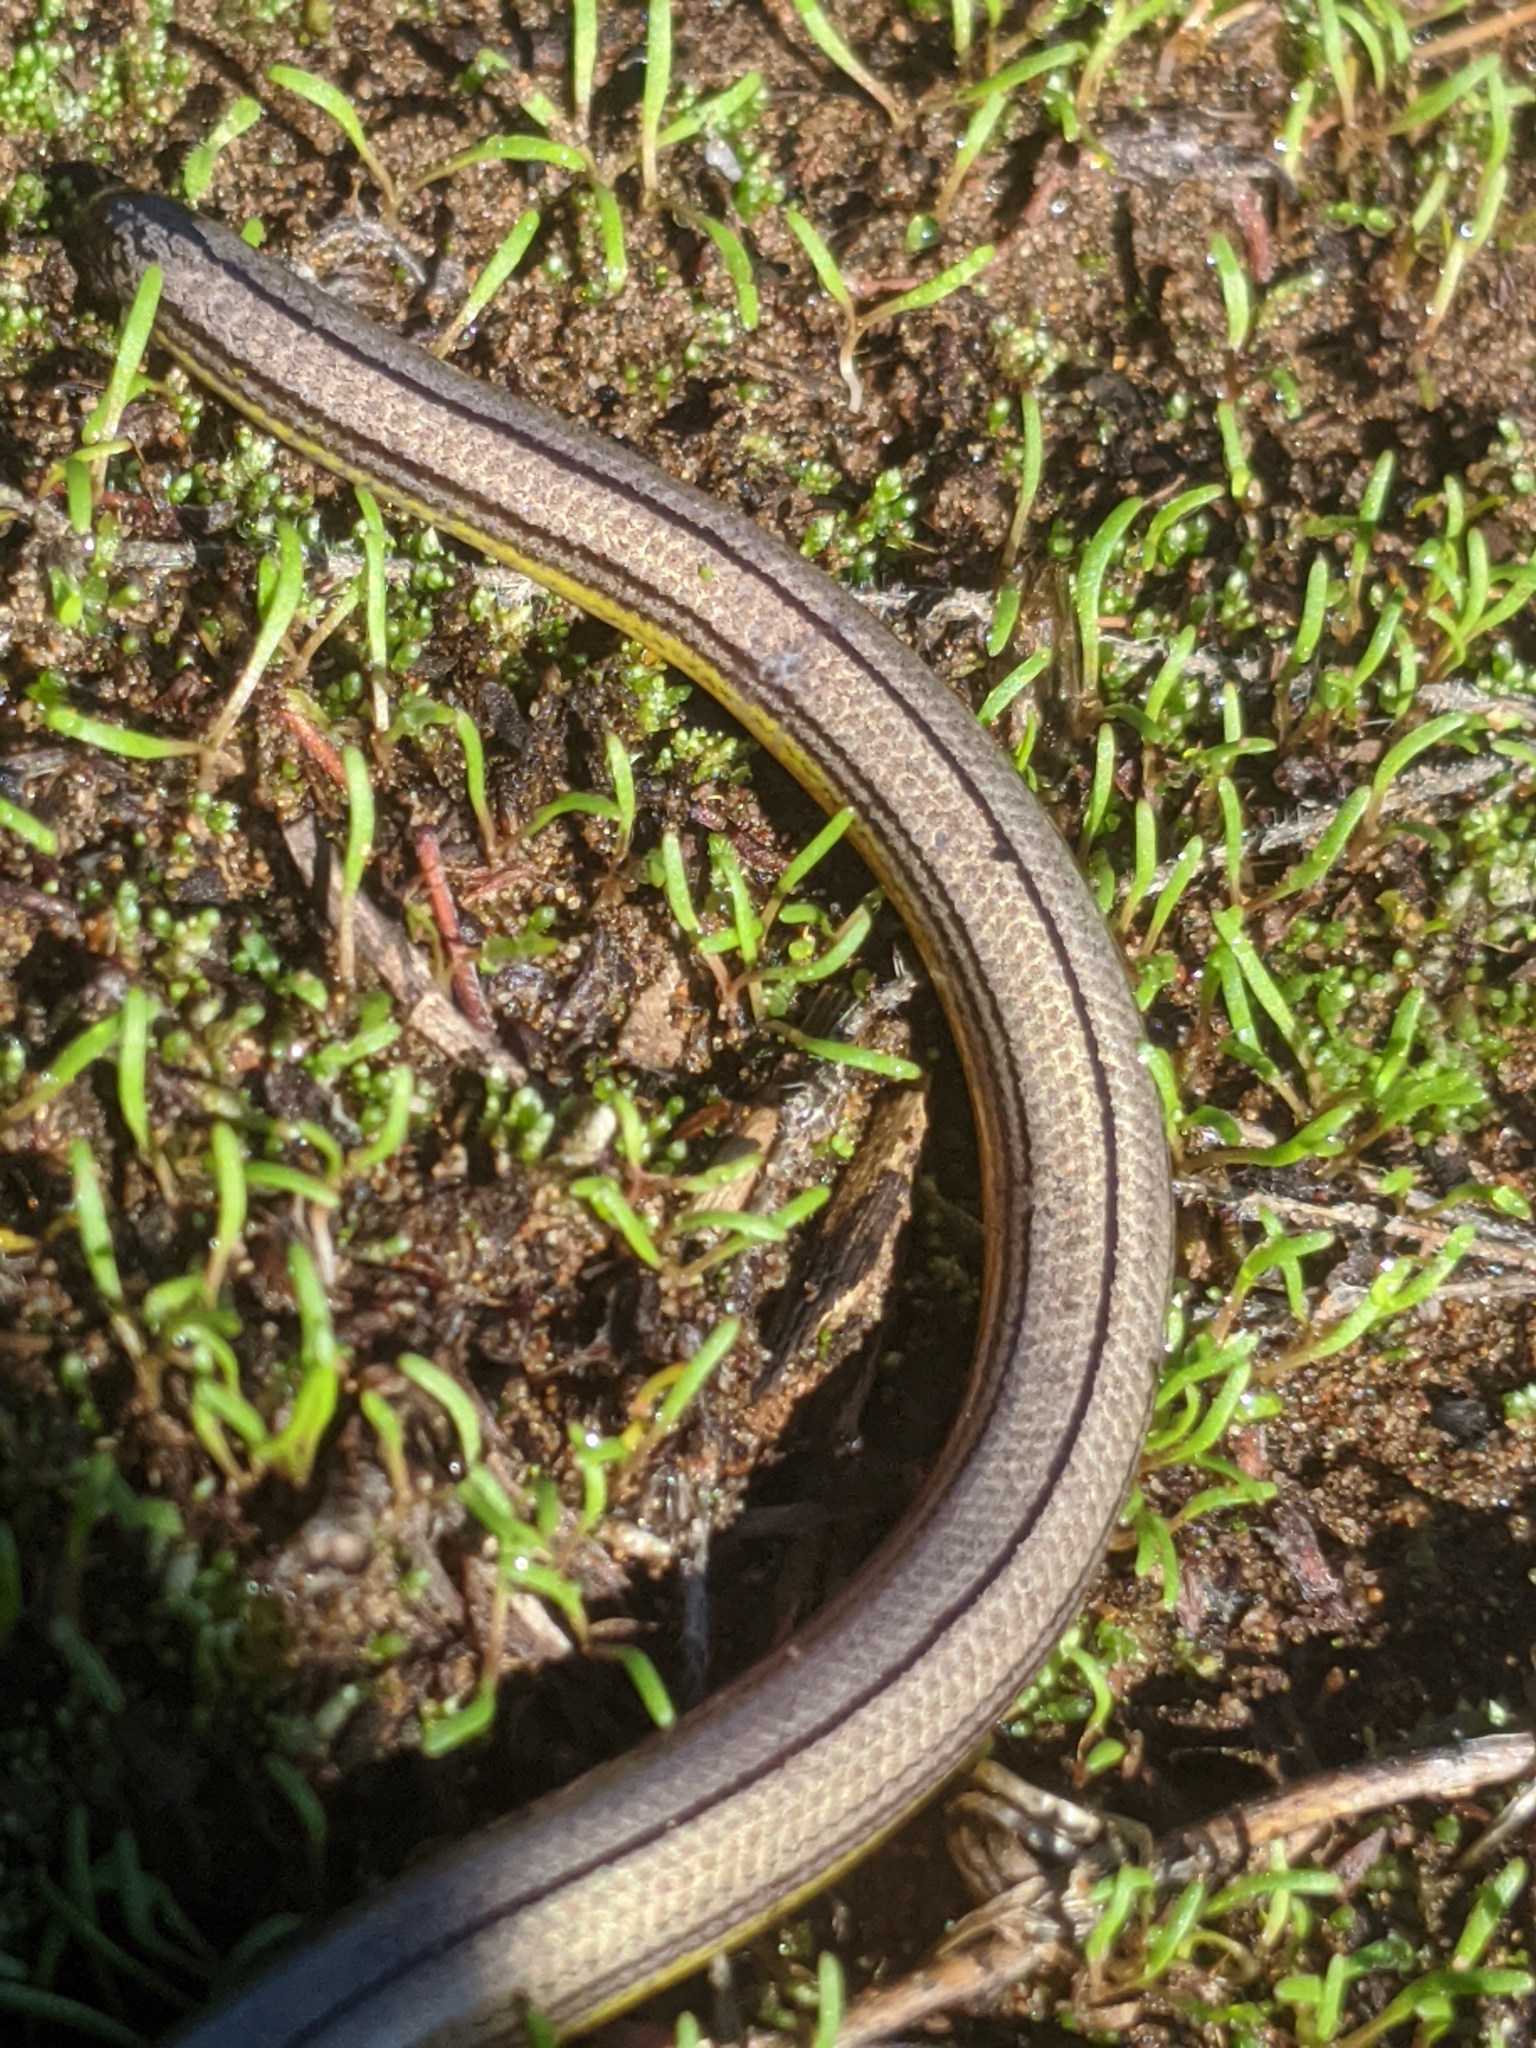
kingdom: Animalia
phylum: Chordata
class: Squamata
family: Anguidae
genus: Anniella
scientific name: Anniella pulchra
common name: California legless lizard
